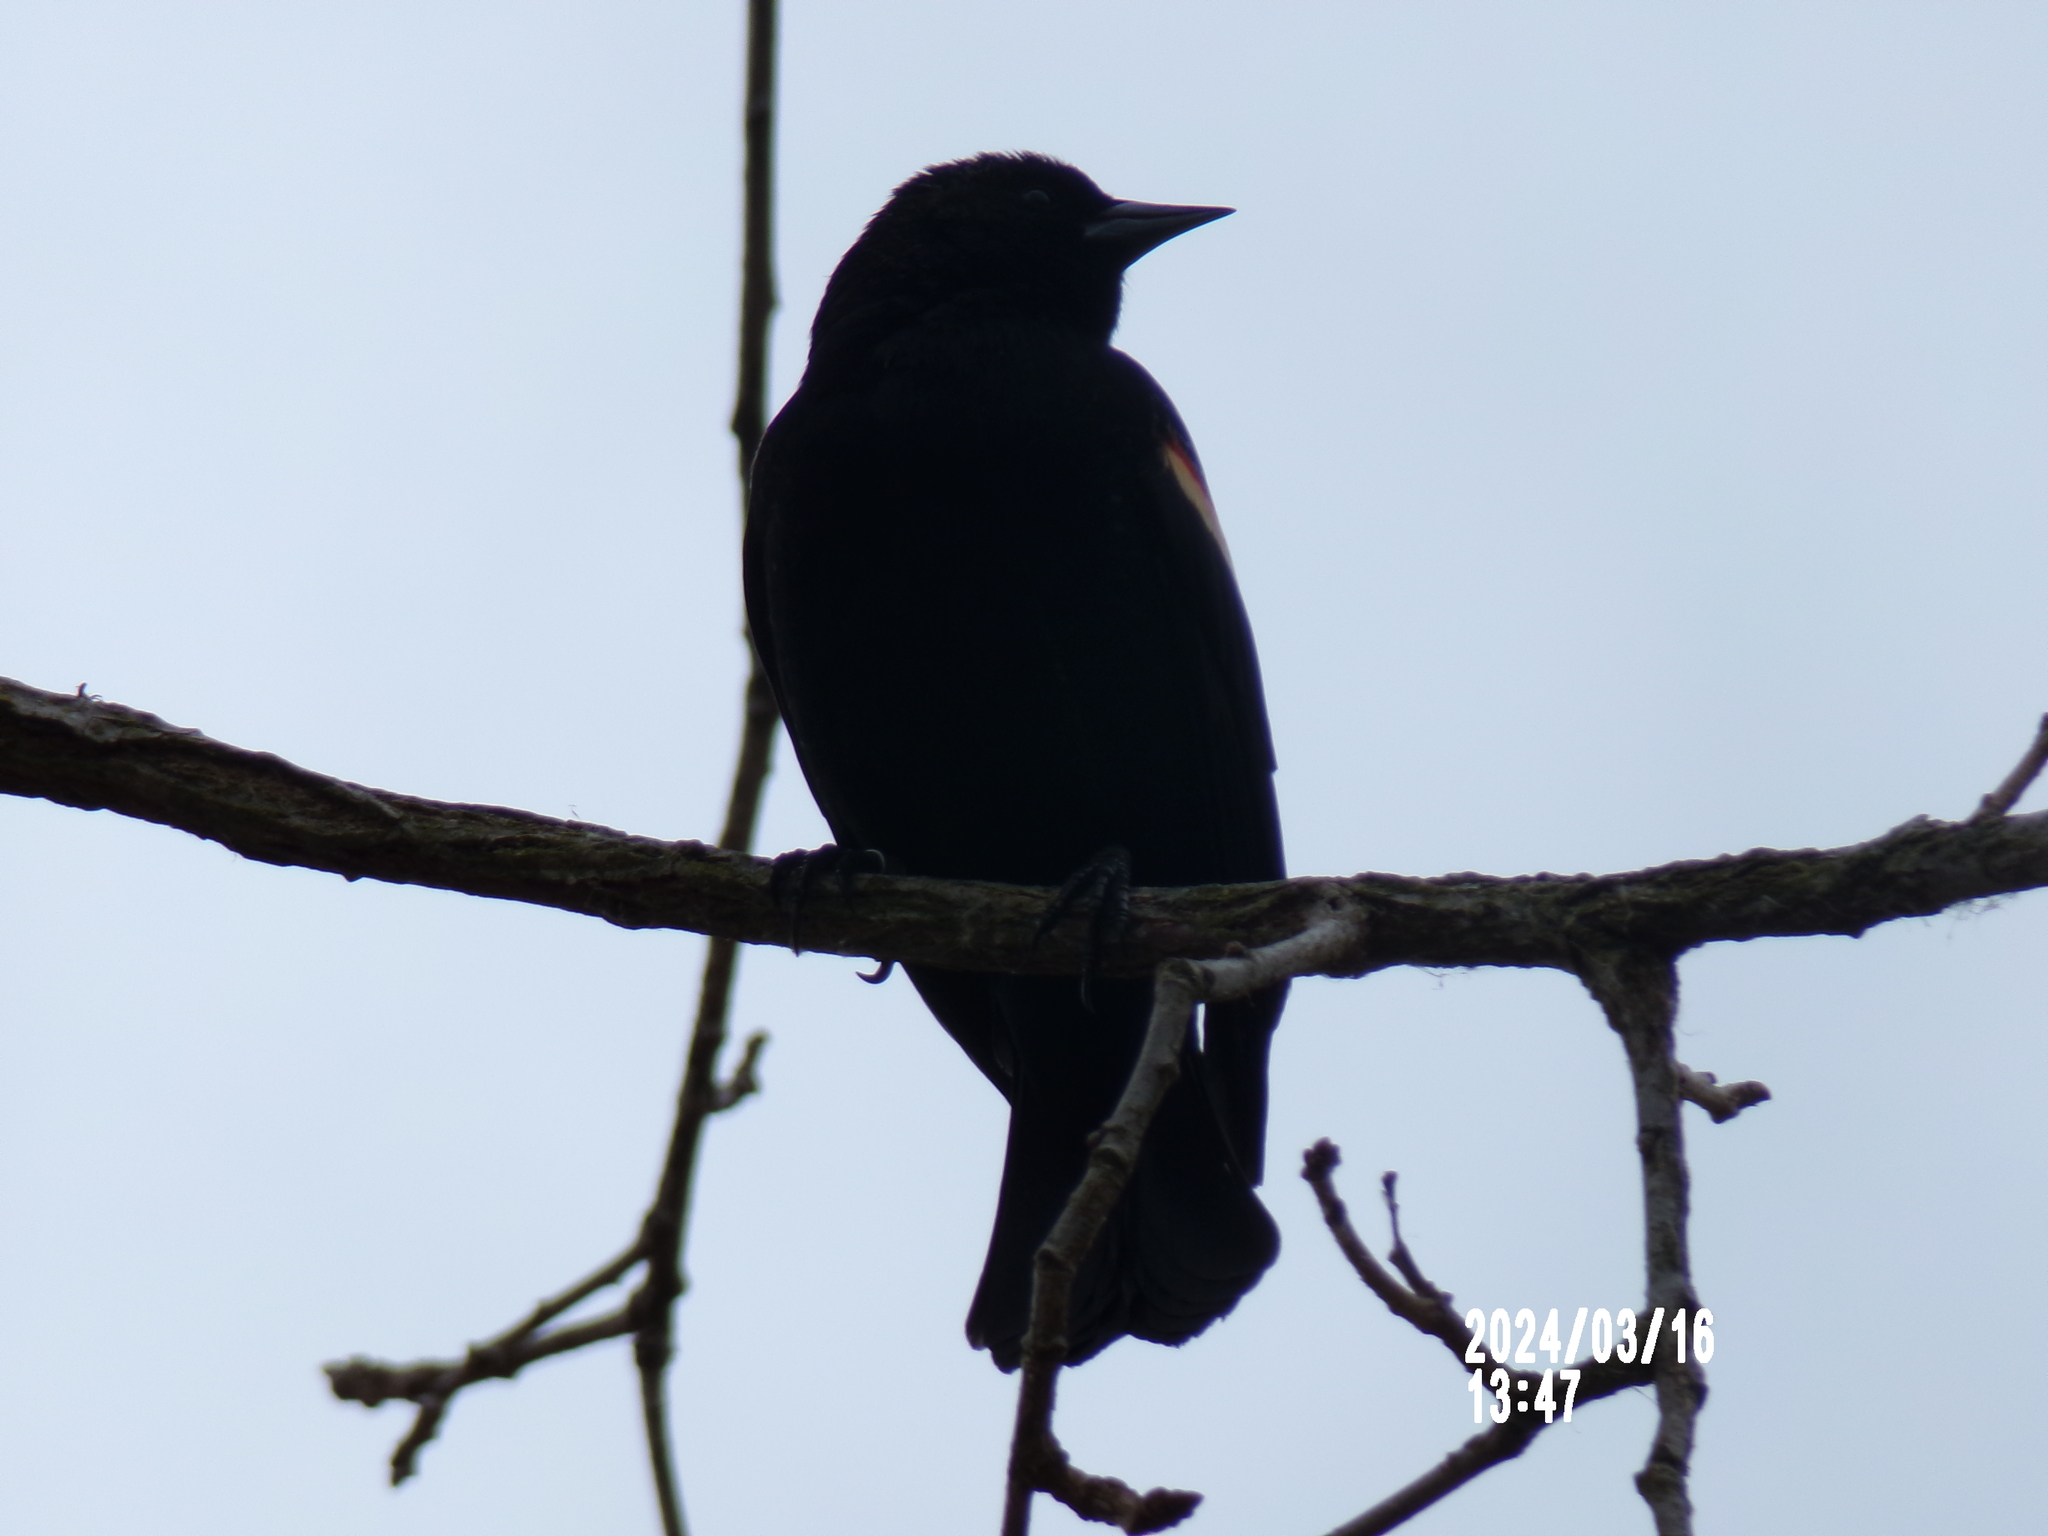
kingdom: Animalia
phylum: Chordata
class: Aves
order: Passeriformes
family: Icteridae
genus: Agelaius
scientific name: Agelaius phoeniceus
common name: Red-winged blackbird
